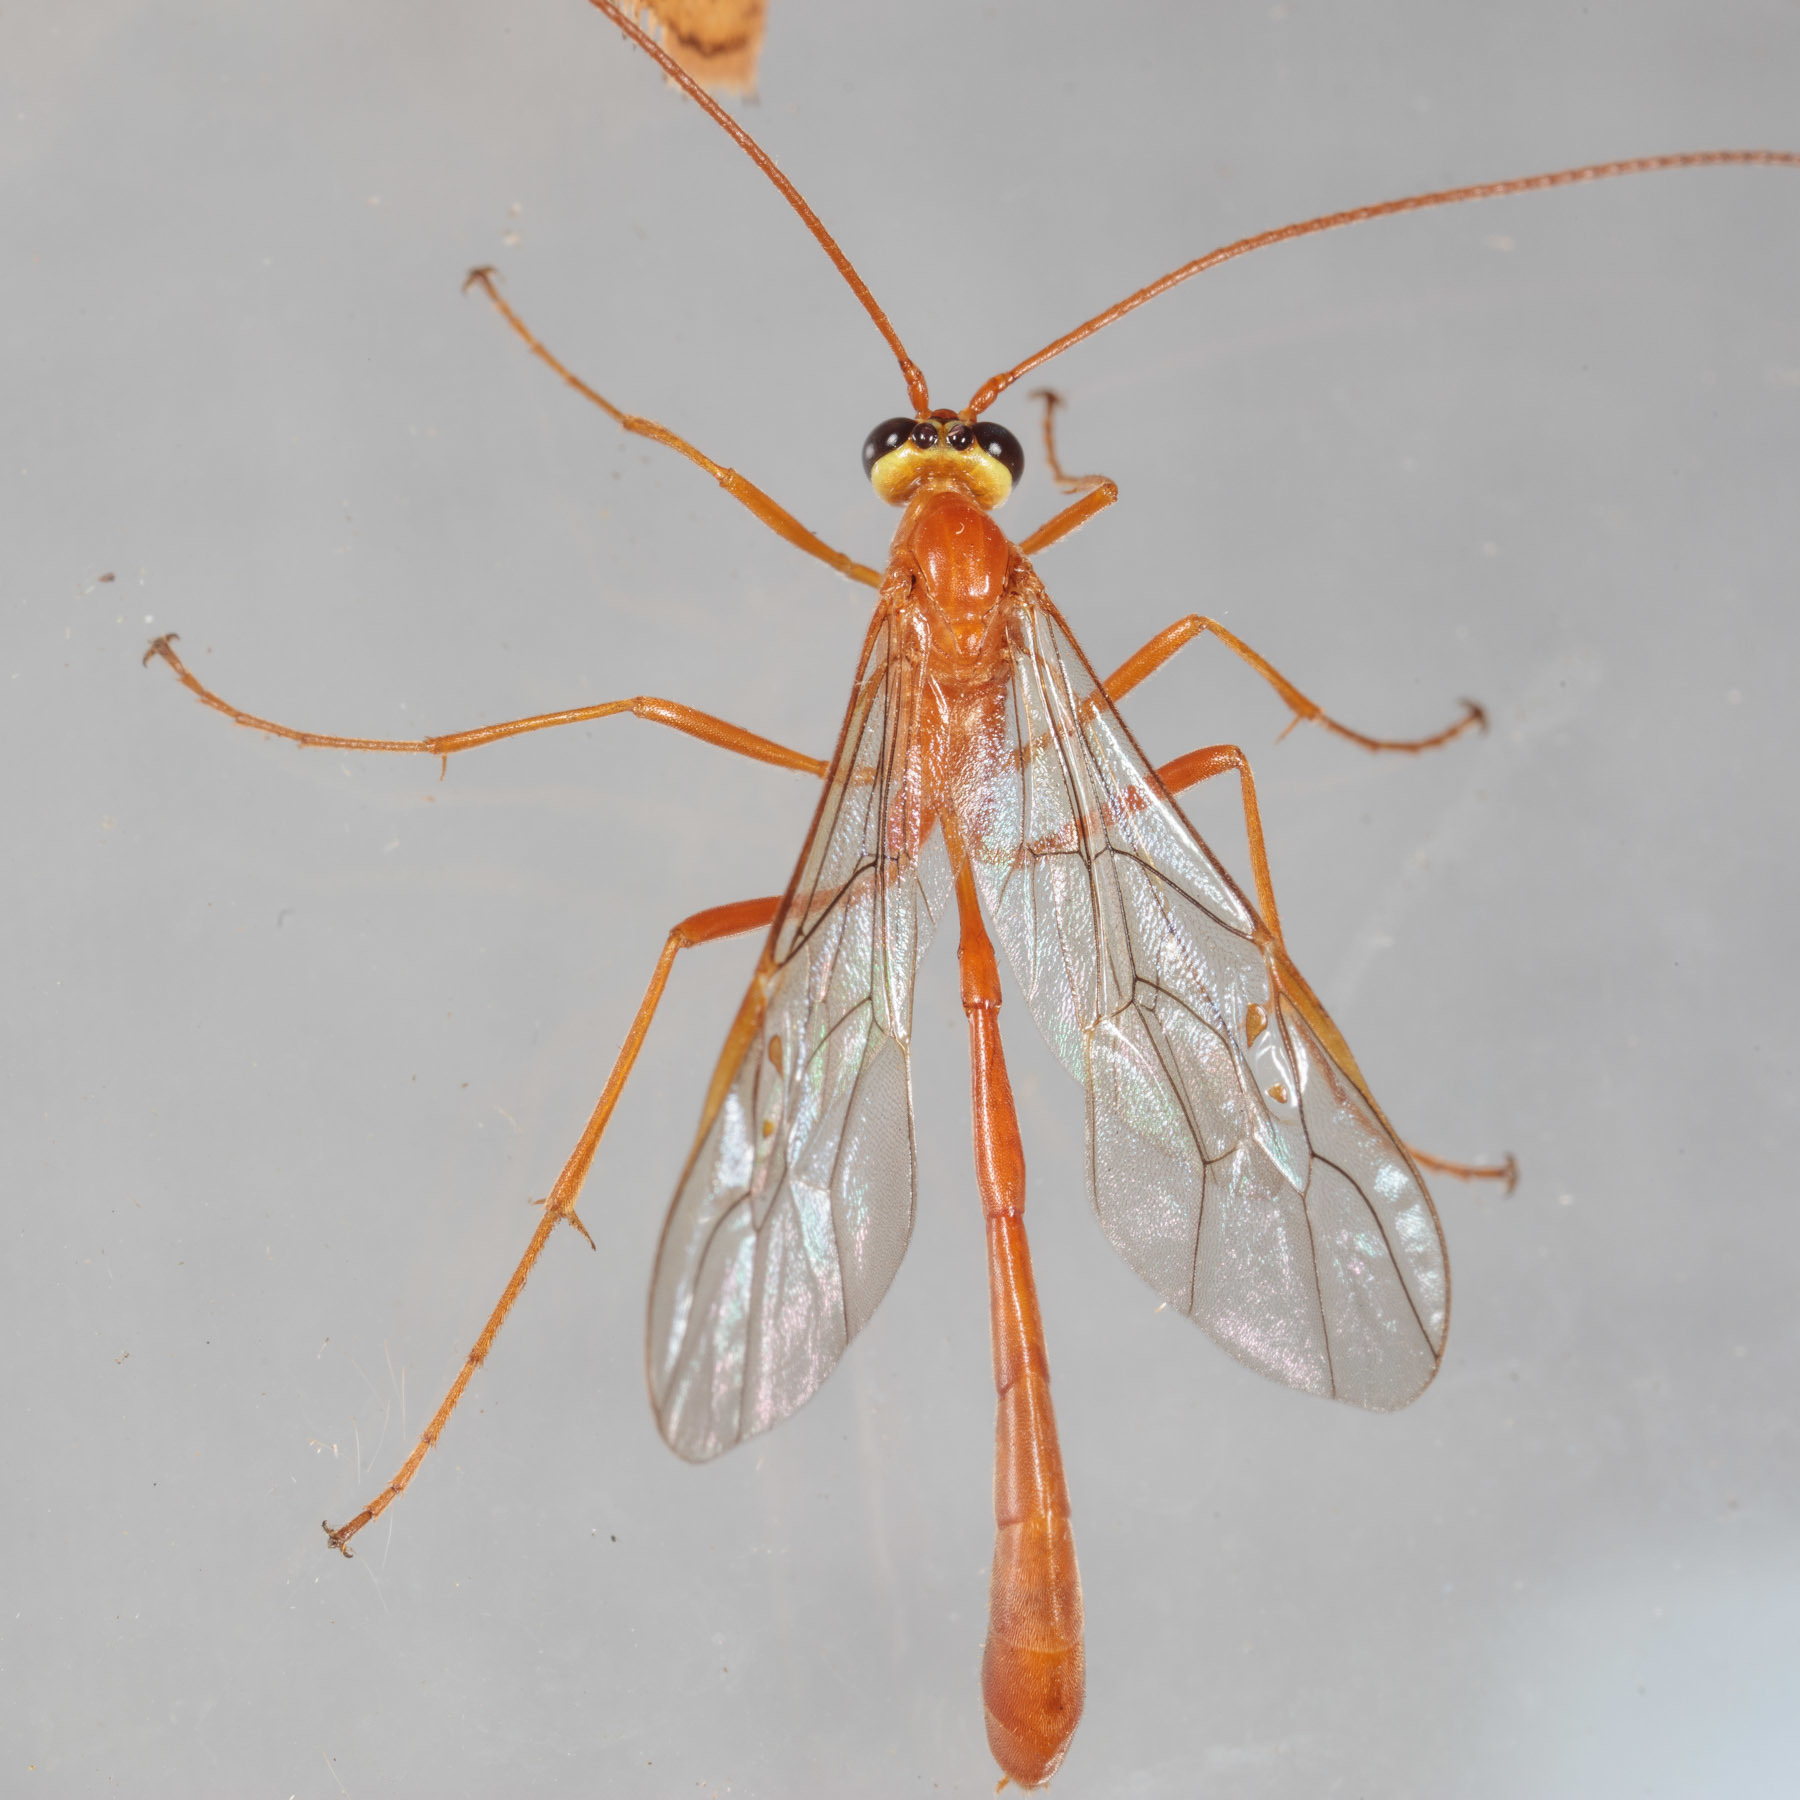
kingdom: Animalia
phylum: Arthropoda
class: Insecta
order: Hymenoptera
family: Ichneumonidae
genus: Enicospilus
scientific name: Enicospilus purgatus
